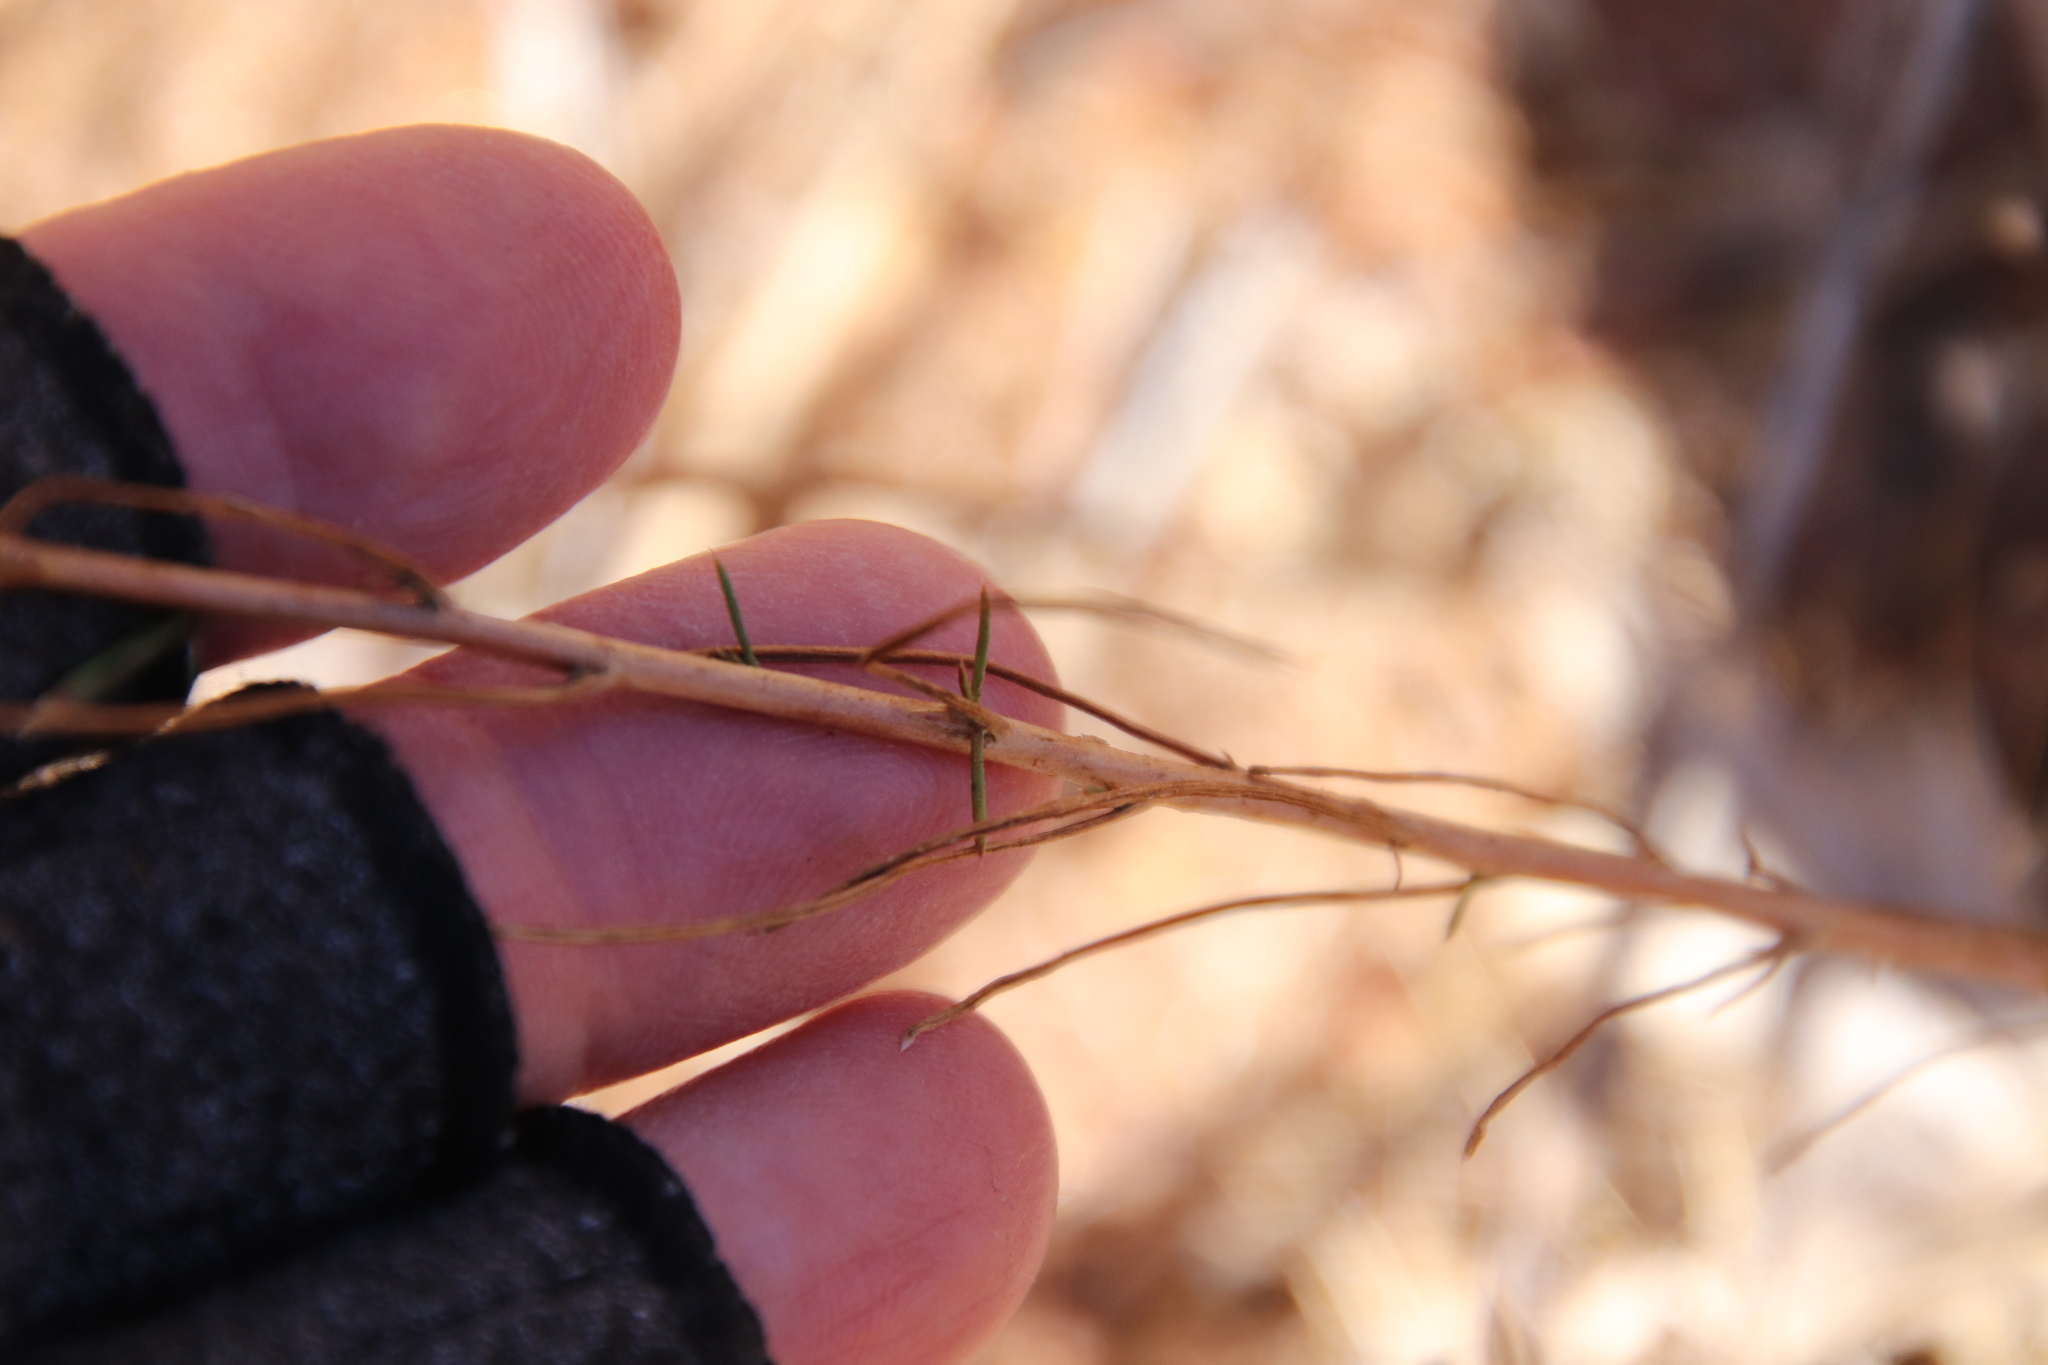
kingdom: Plantae
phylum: Tracheophyta
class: Magnoliopsida
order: Ericales
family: Polemoniaceae
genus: Eriastrum
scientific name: Eriastrum sapphirinum
